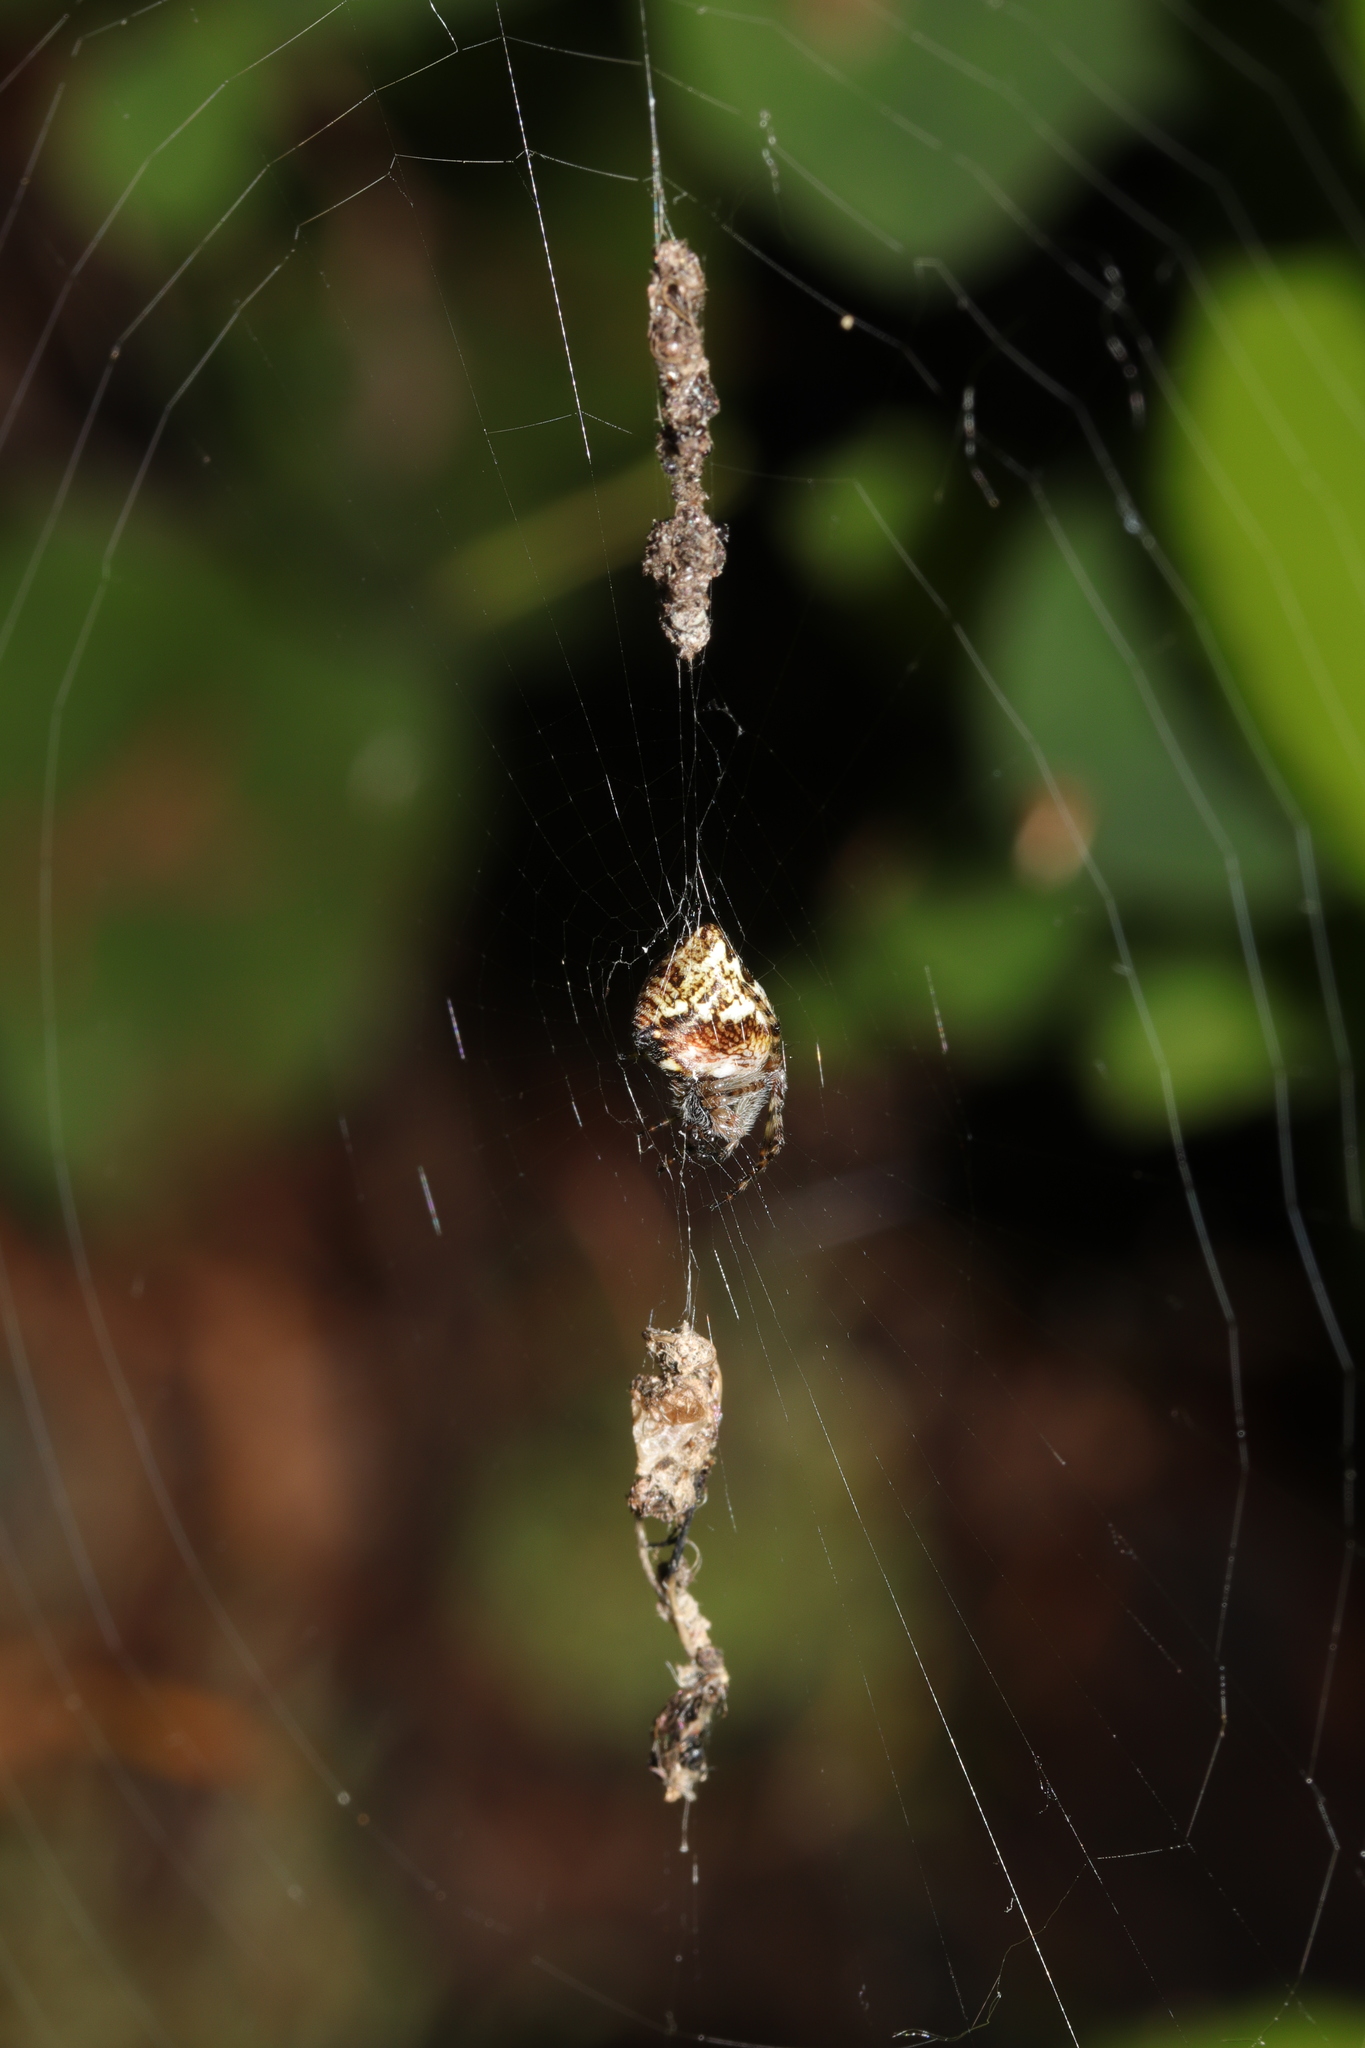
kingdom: Animalia
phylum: Arthropoda
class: Arachnida
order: Araneae
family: Araneidae
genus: Cyclosa
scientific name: Cyclosa conica
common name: Conical trashline orbweaver
